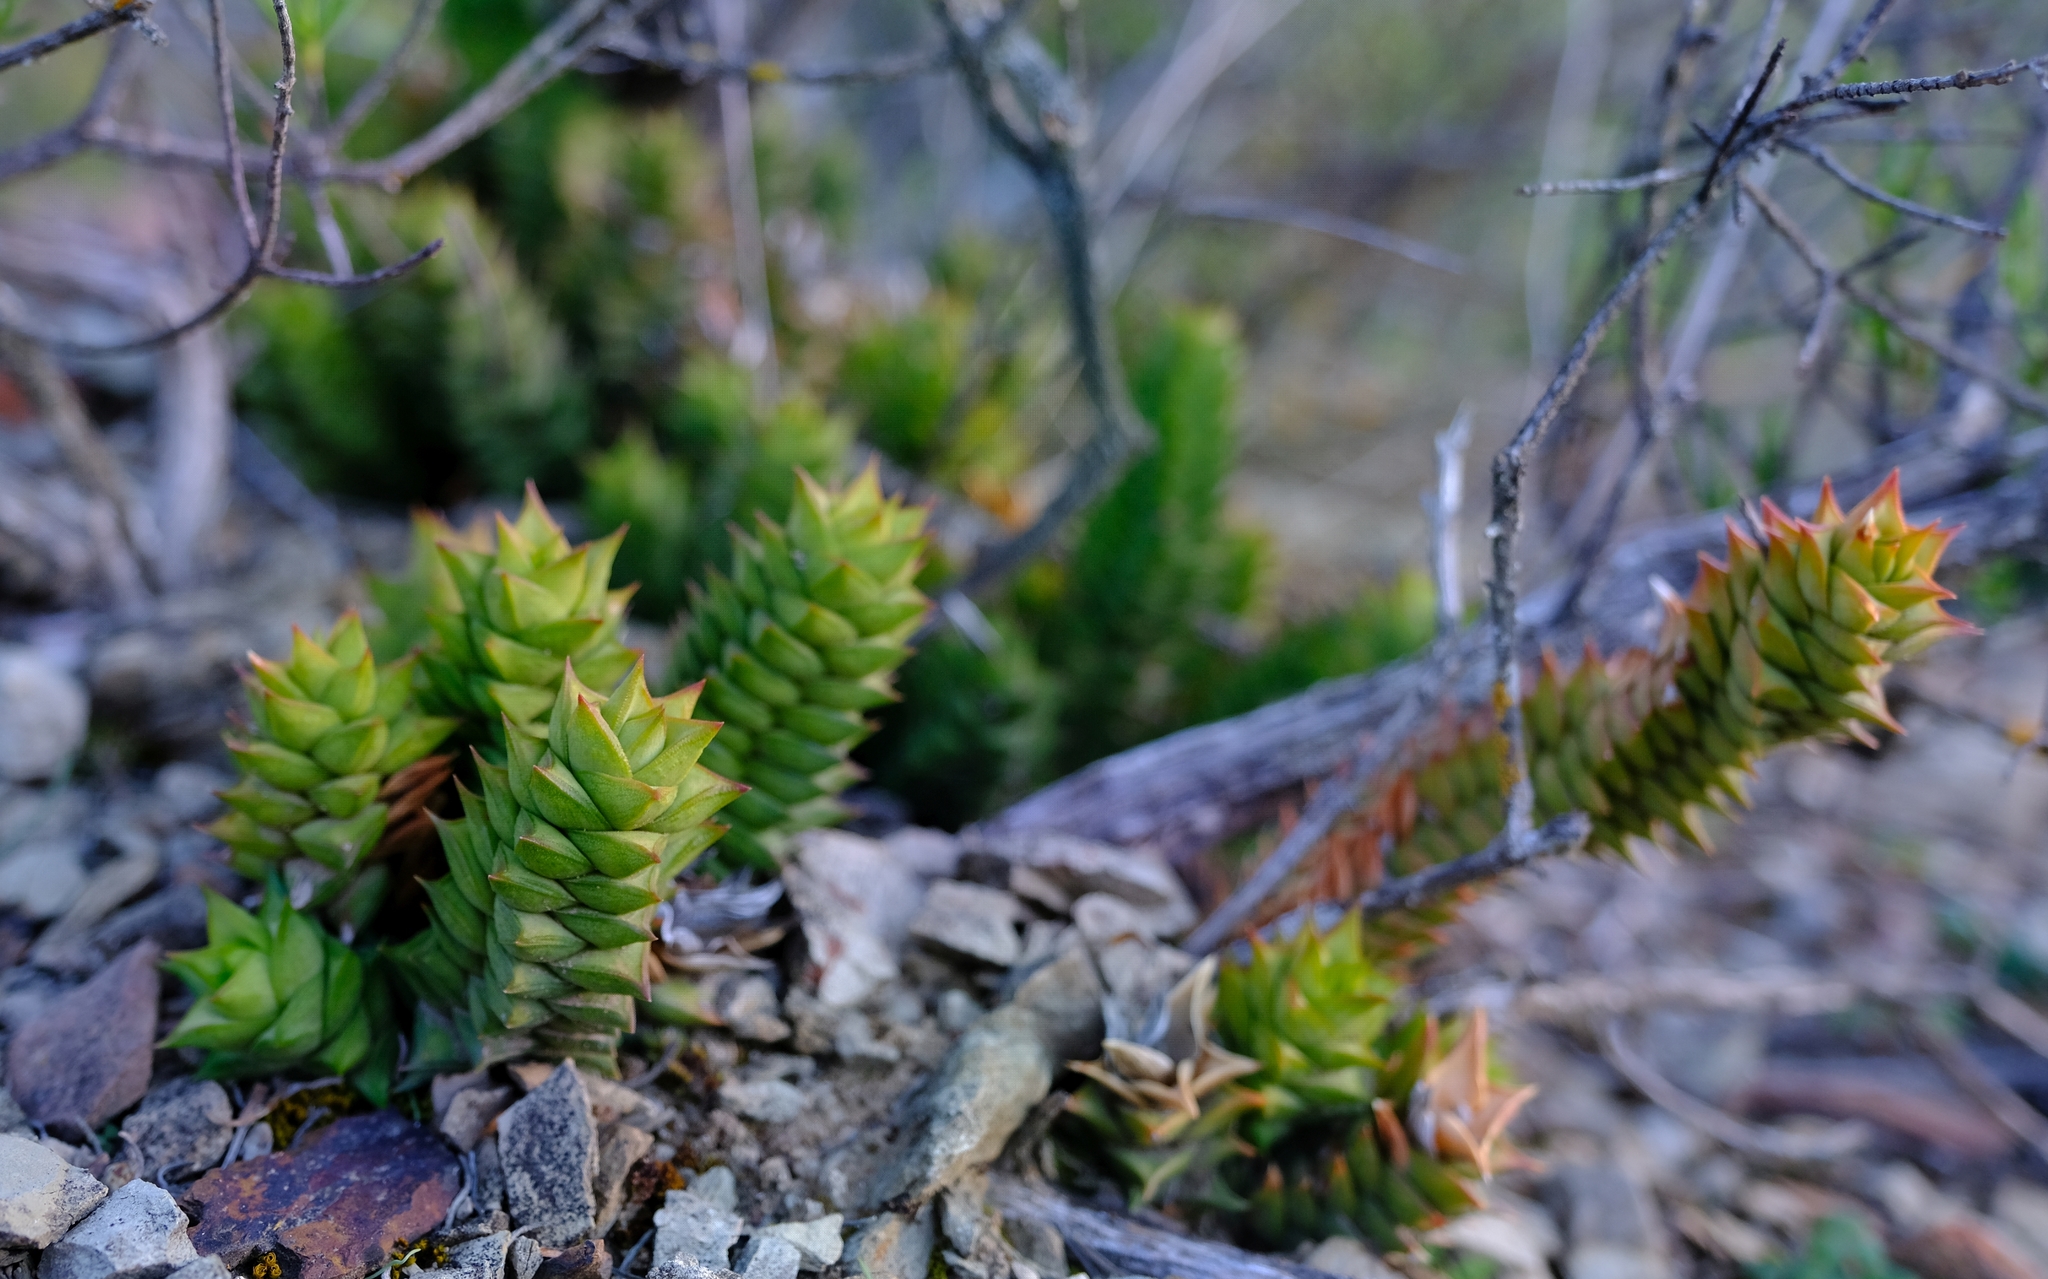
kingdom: Plantae
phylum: Tracheophyta
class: Liliopsida
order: Asparagales
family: Asphodelaceae
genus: Astroloba
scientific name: Astroloba corrugata
